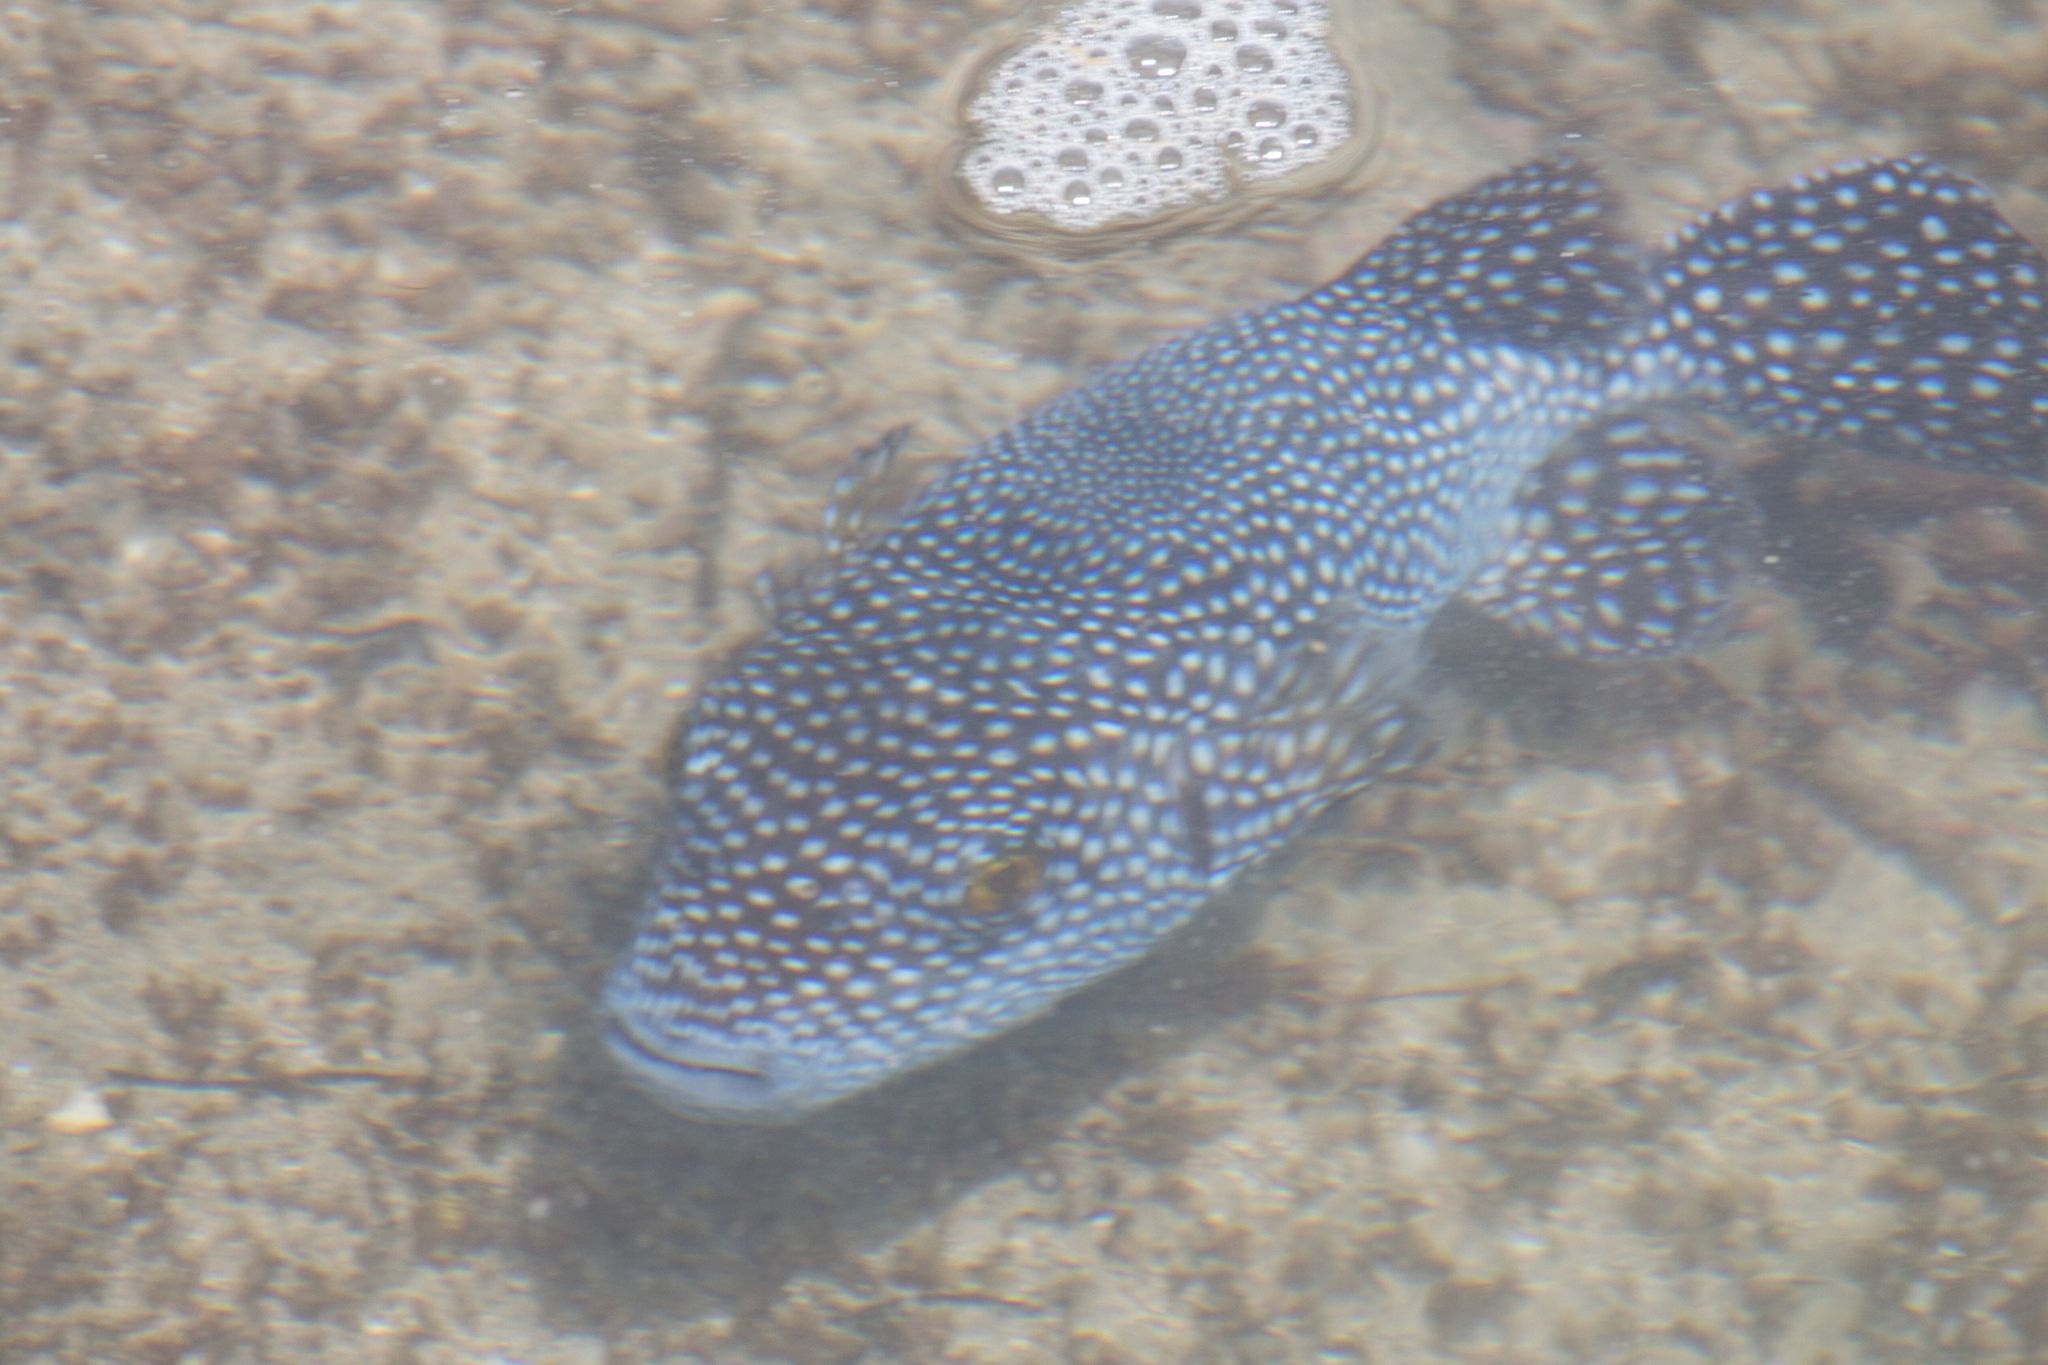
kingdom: Animalia
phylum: Chordata
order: Tetraodontiformes
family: Tetraodontidae
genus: Arothron
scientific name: Arothron meleagris
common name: Guinea-fowl pufferfish
